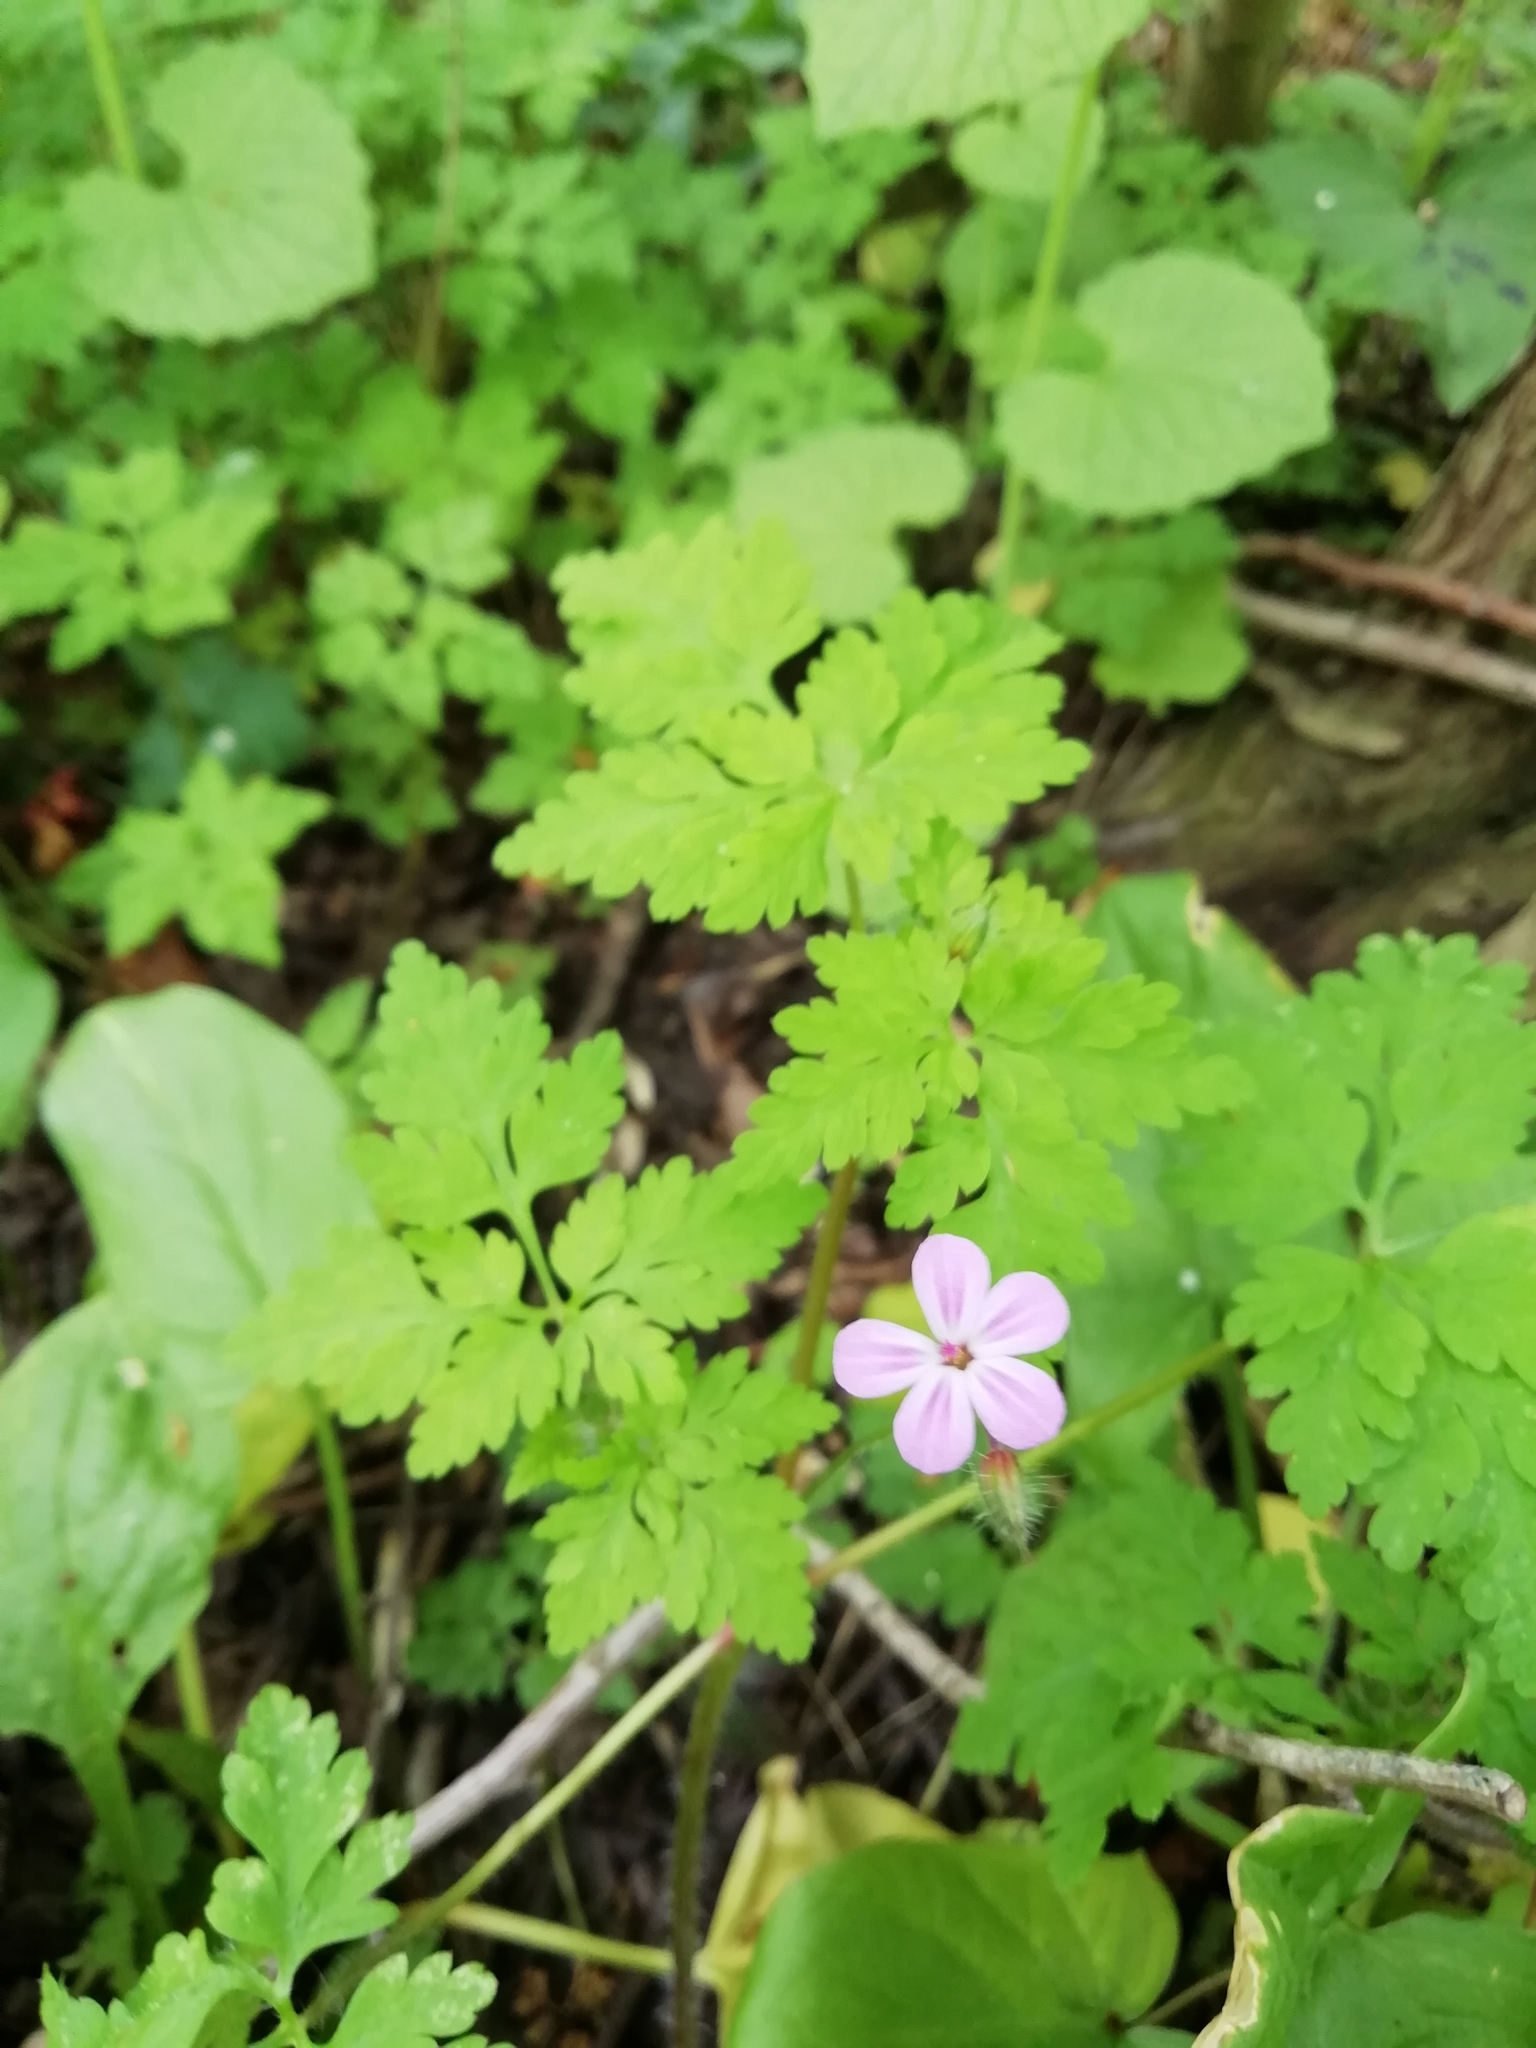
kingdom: Plantae
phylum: Tracheophyta
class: Magnoliopsida
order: Geraniales
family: Geraniaceae
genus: Geranium
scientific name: Geranium robertianum
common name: Herb-robert
